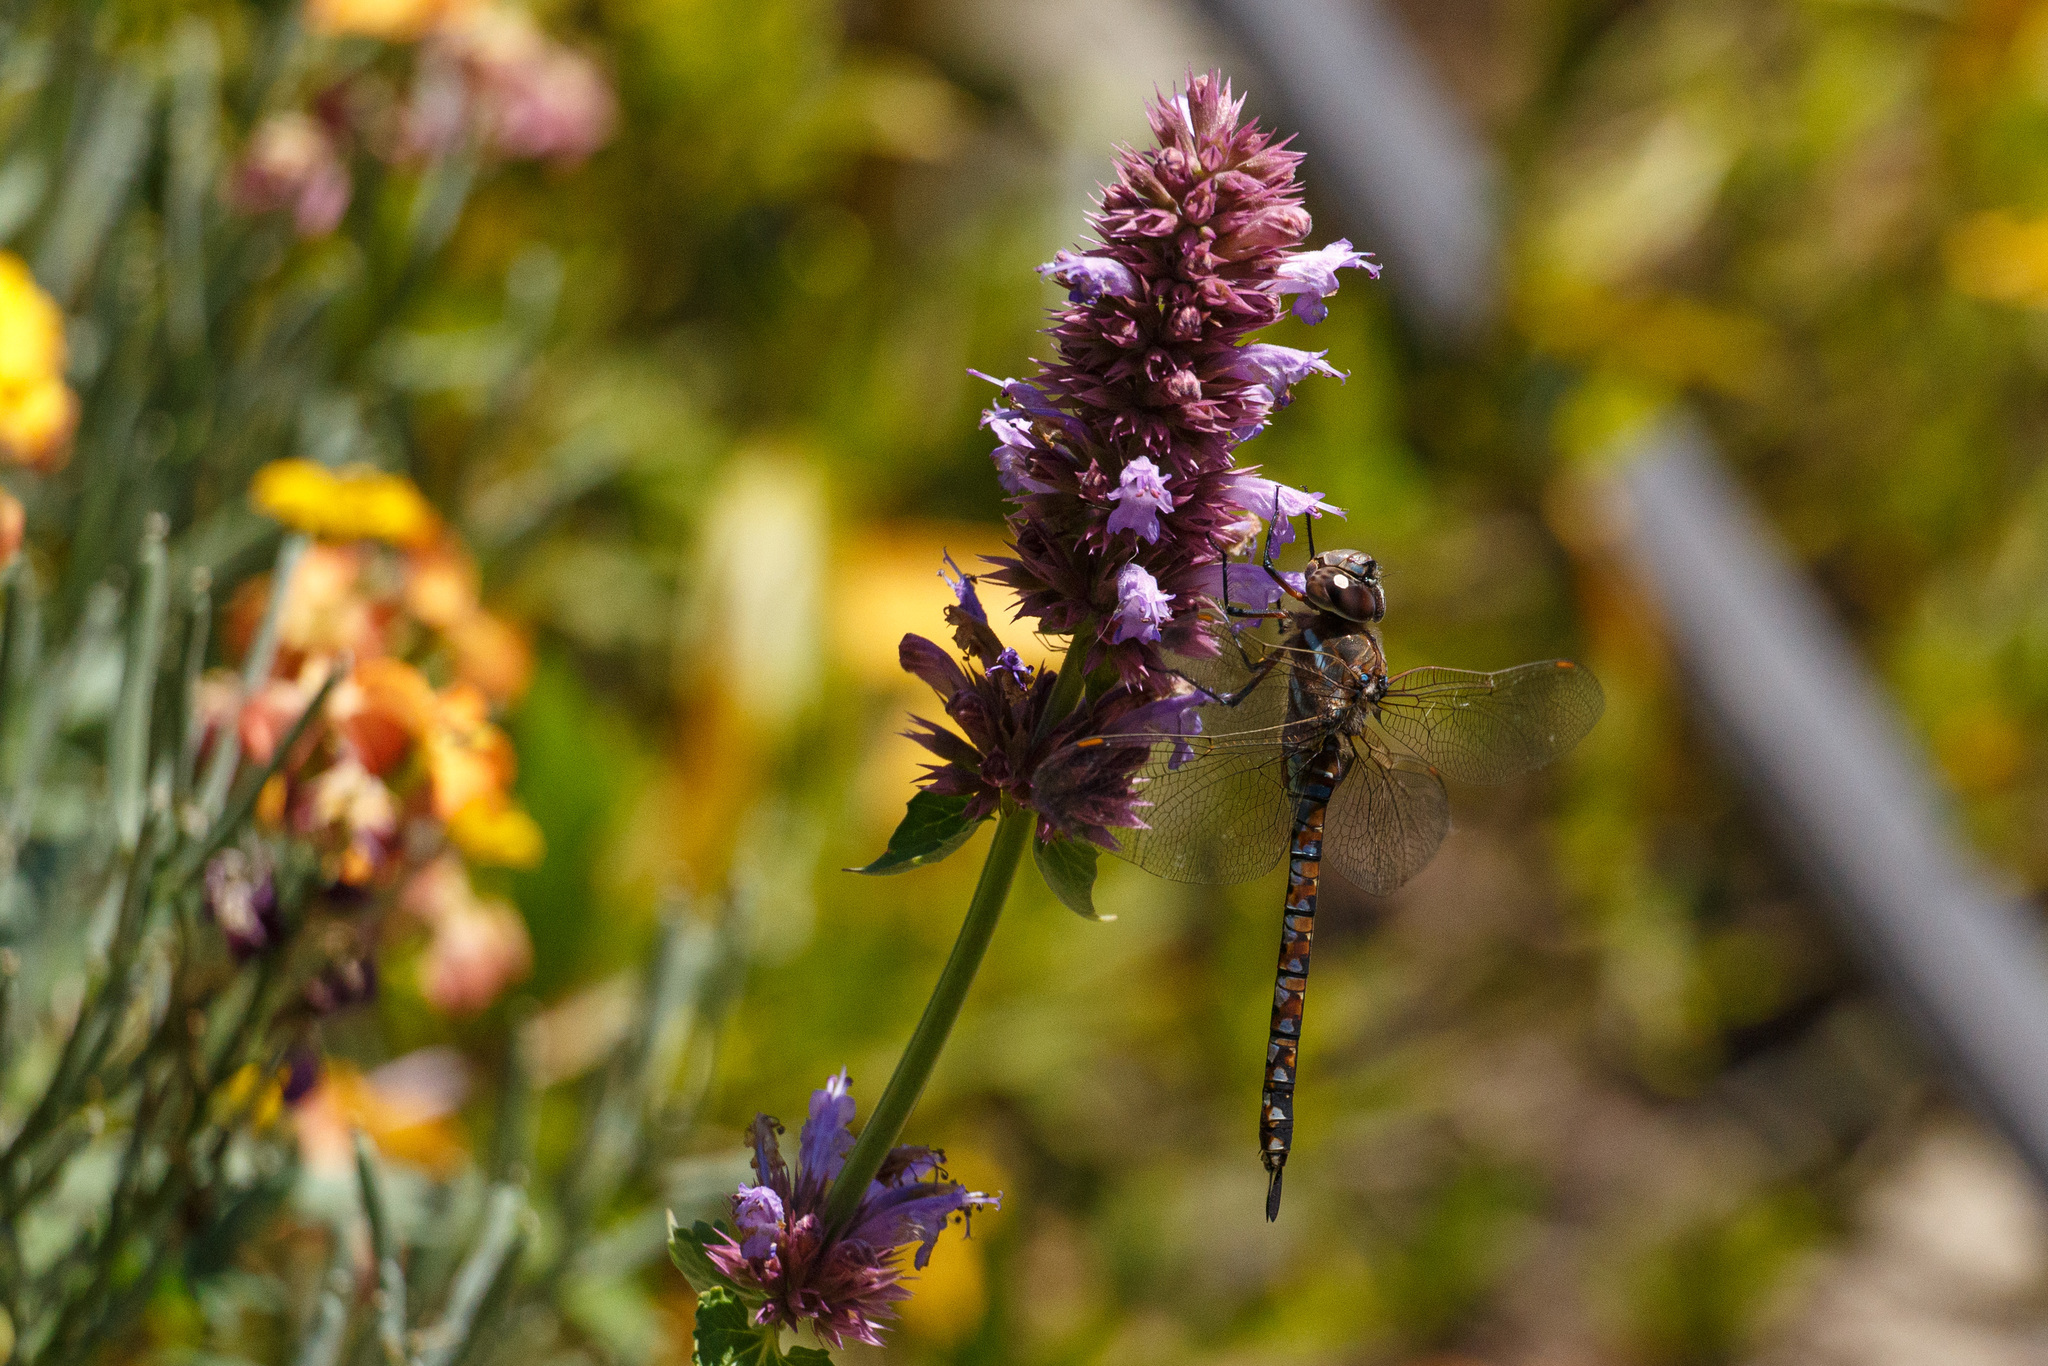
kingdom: Animalia
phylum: Arthropoda
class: Insecta
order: Odonata
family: Aeshnidae
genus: Rhionaeschna
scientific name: Rhionaeschna multicolor
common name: Blue-eyed darner
